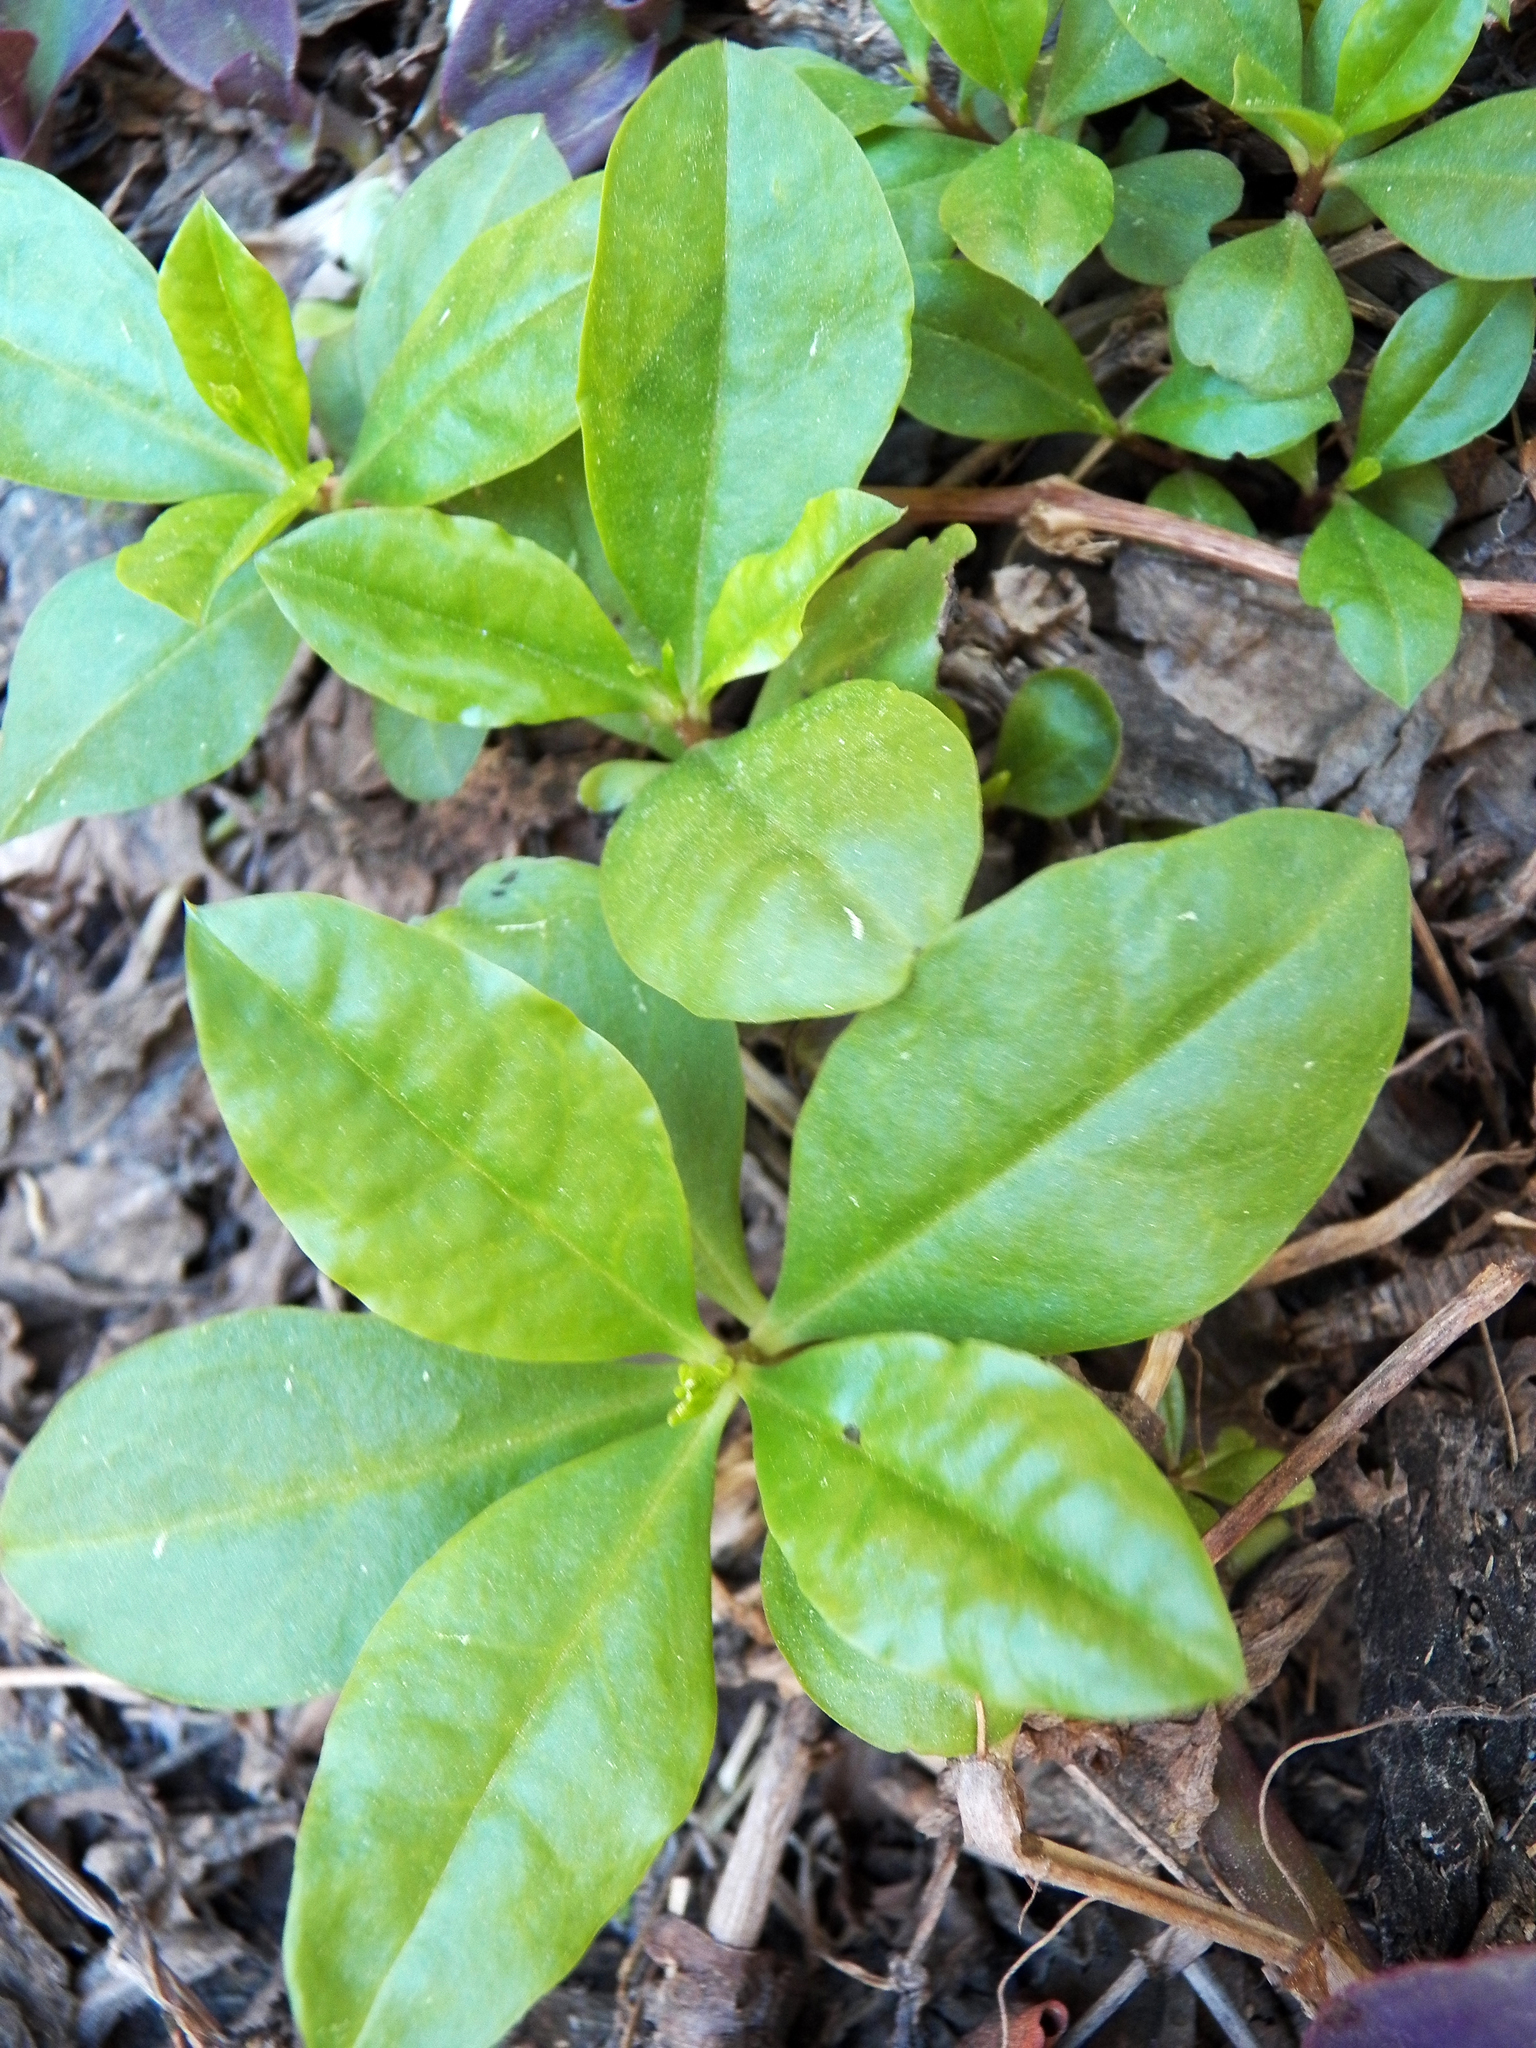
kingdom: Plantae
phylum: Tracheophyta
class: Magnoliopsida
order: Caryophyllales
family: Talinaceae
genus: Talinum
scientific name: Talinum paniculatum
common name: Jewels of opar
